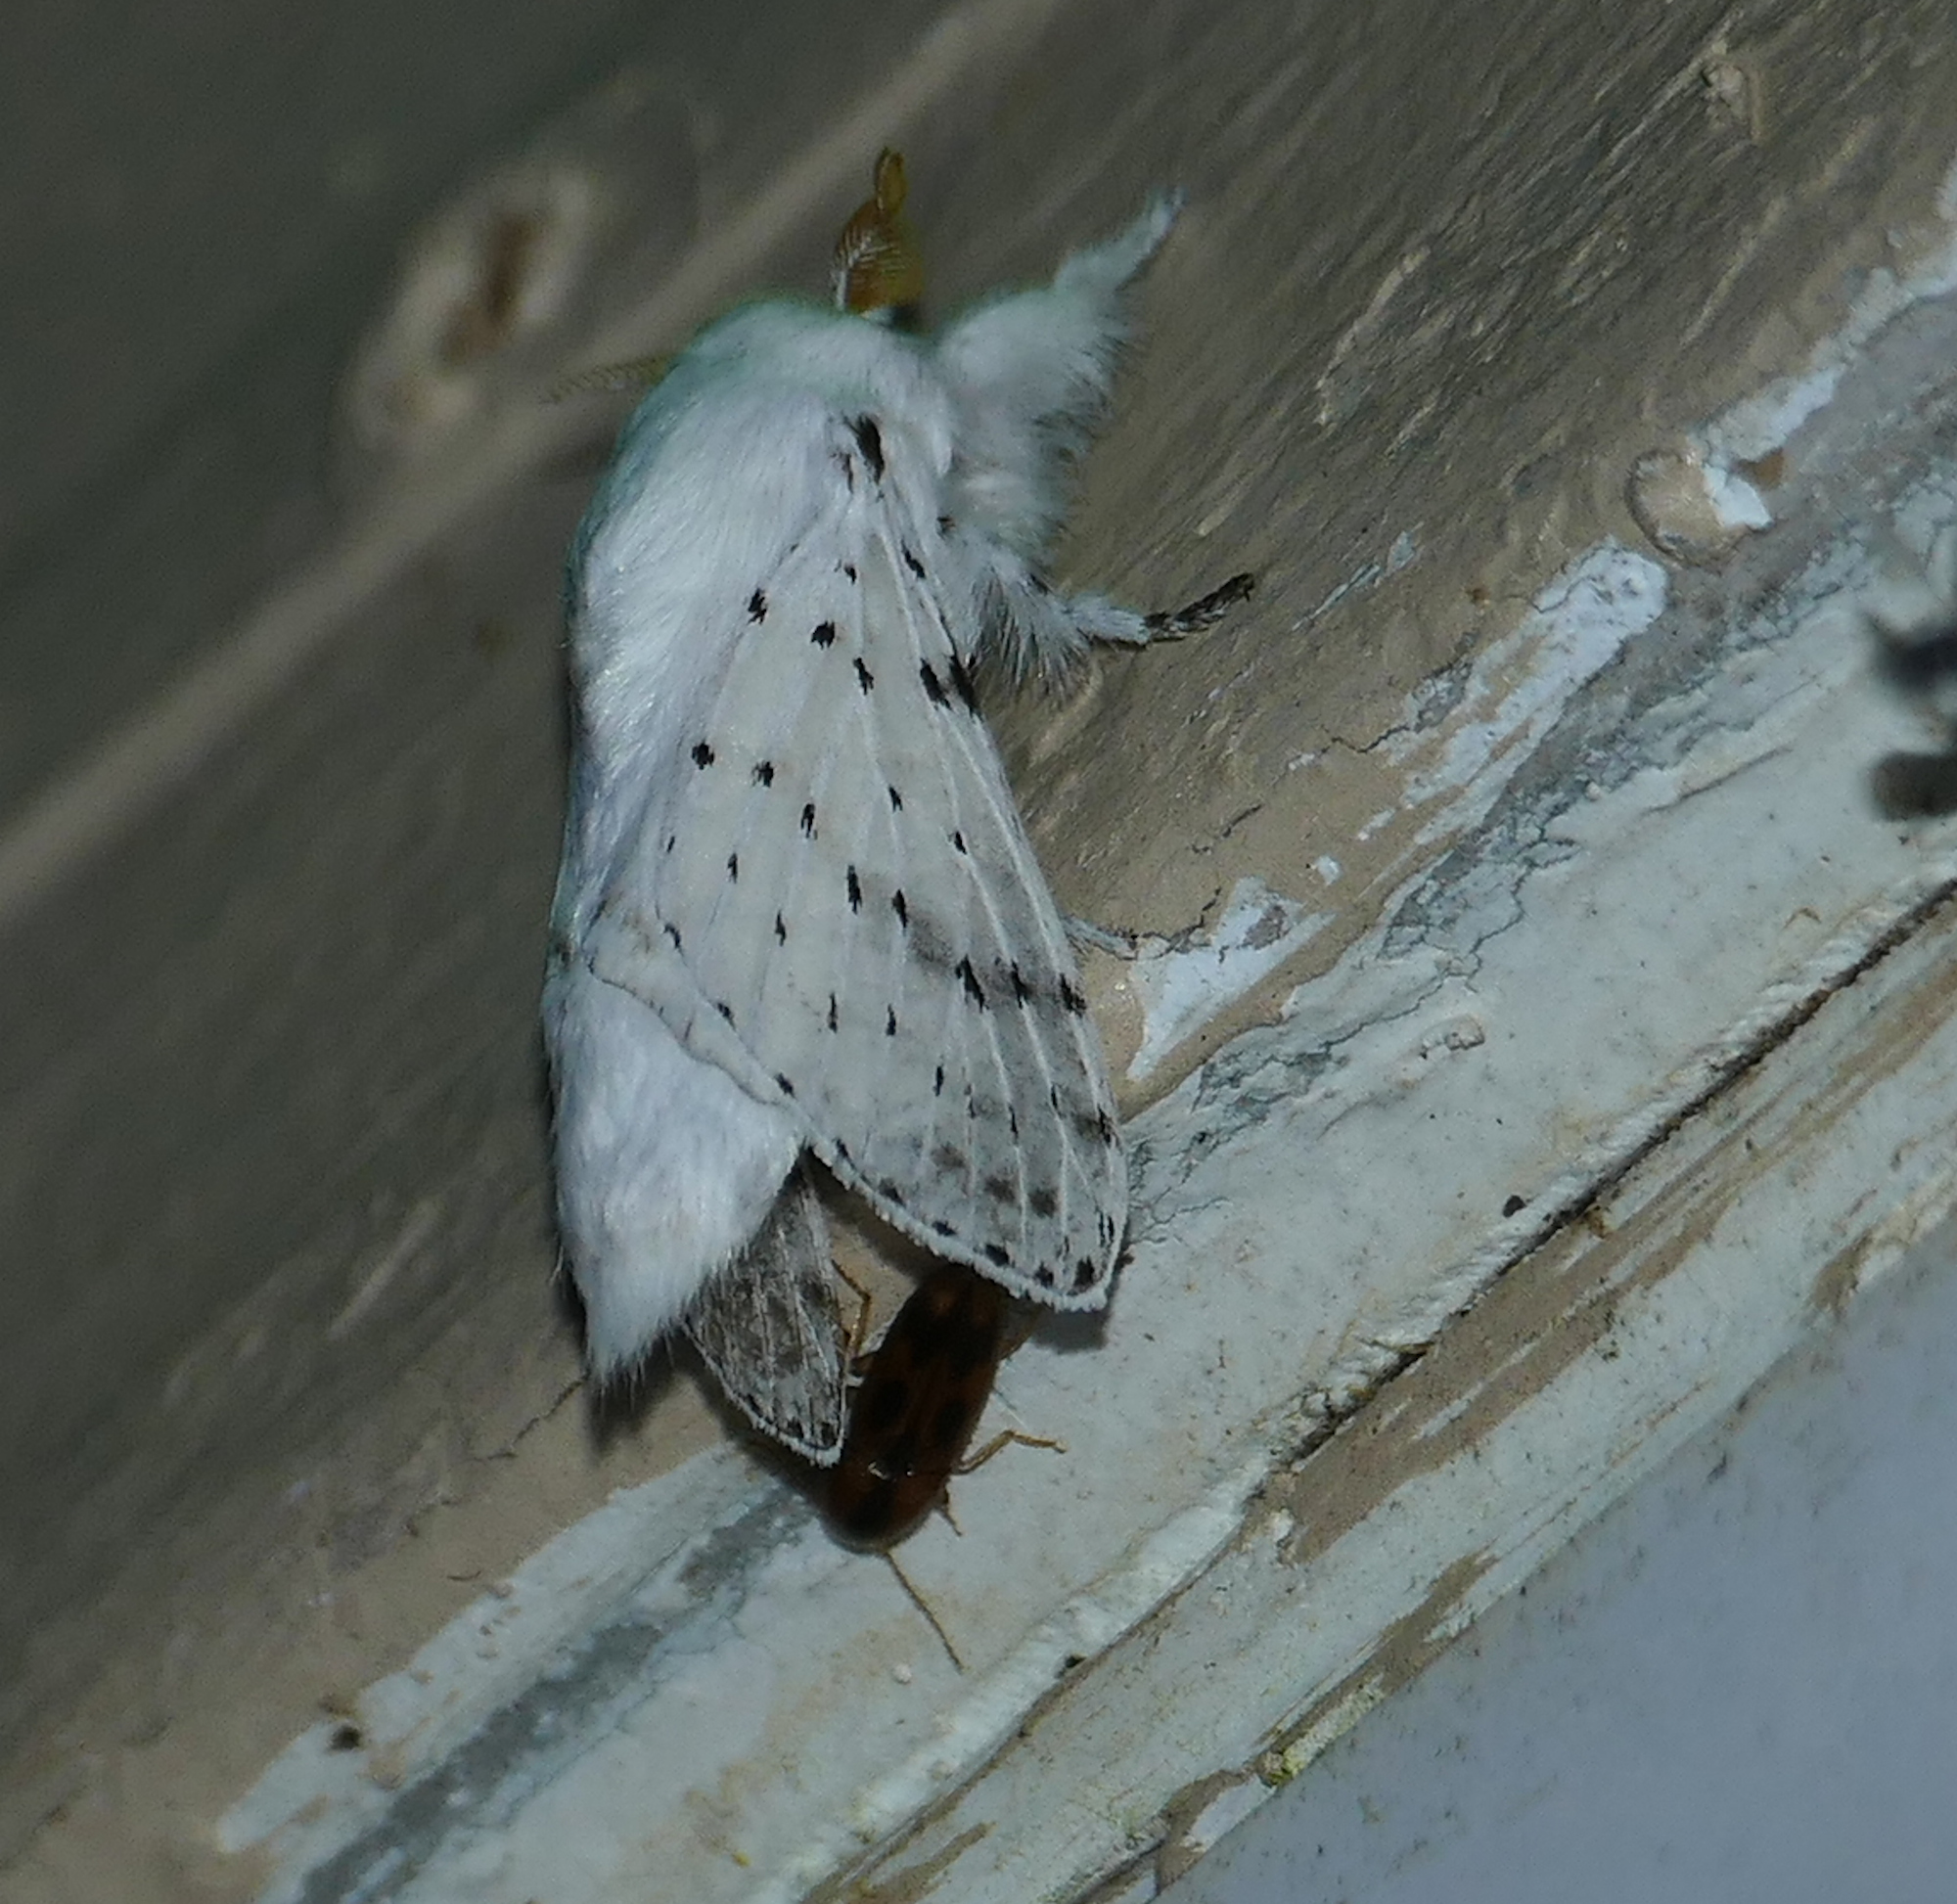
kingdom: Animalia
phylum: Arthropoda
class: Insecta
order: Lepidoptera
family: Lasiocampidae
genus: Artace
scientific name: Artace cribrarius
